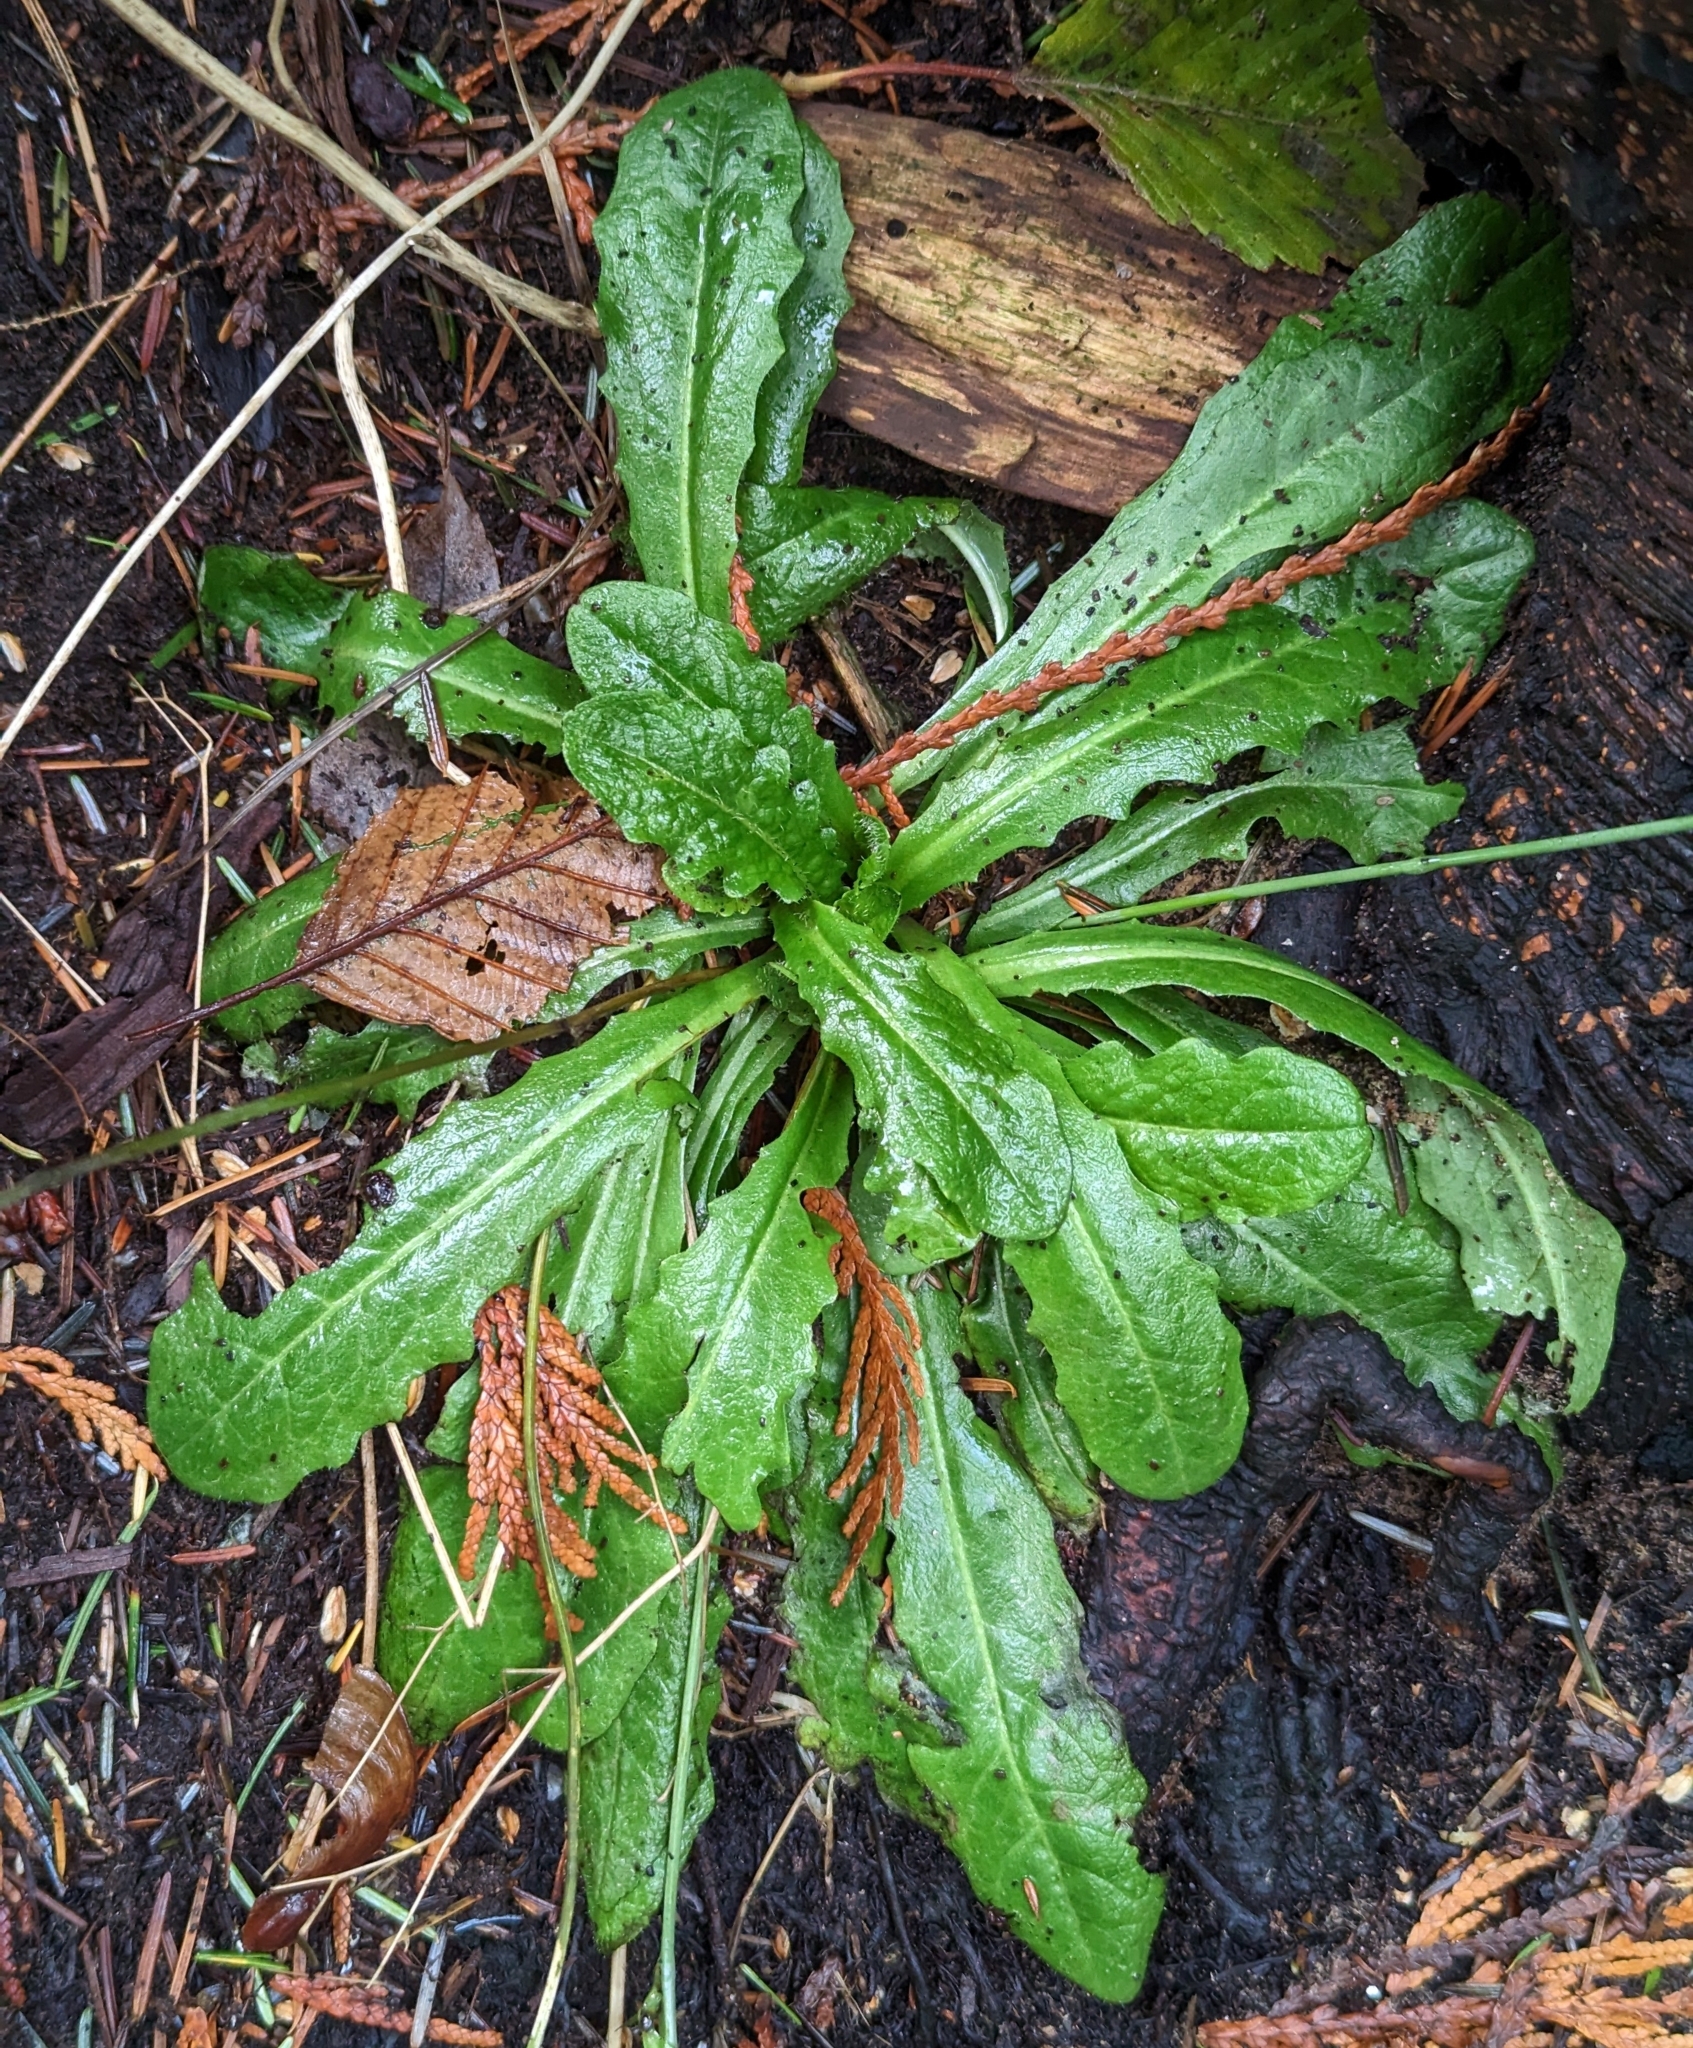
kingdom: Plantae
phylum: Tracheophyta
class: Magnoliopsida
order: Asterales
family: Asteraceae
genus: Hypochaeris
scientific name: Hypochaeris radicata
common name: Flatweed
